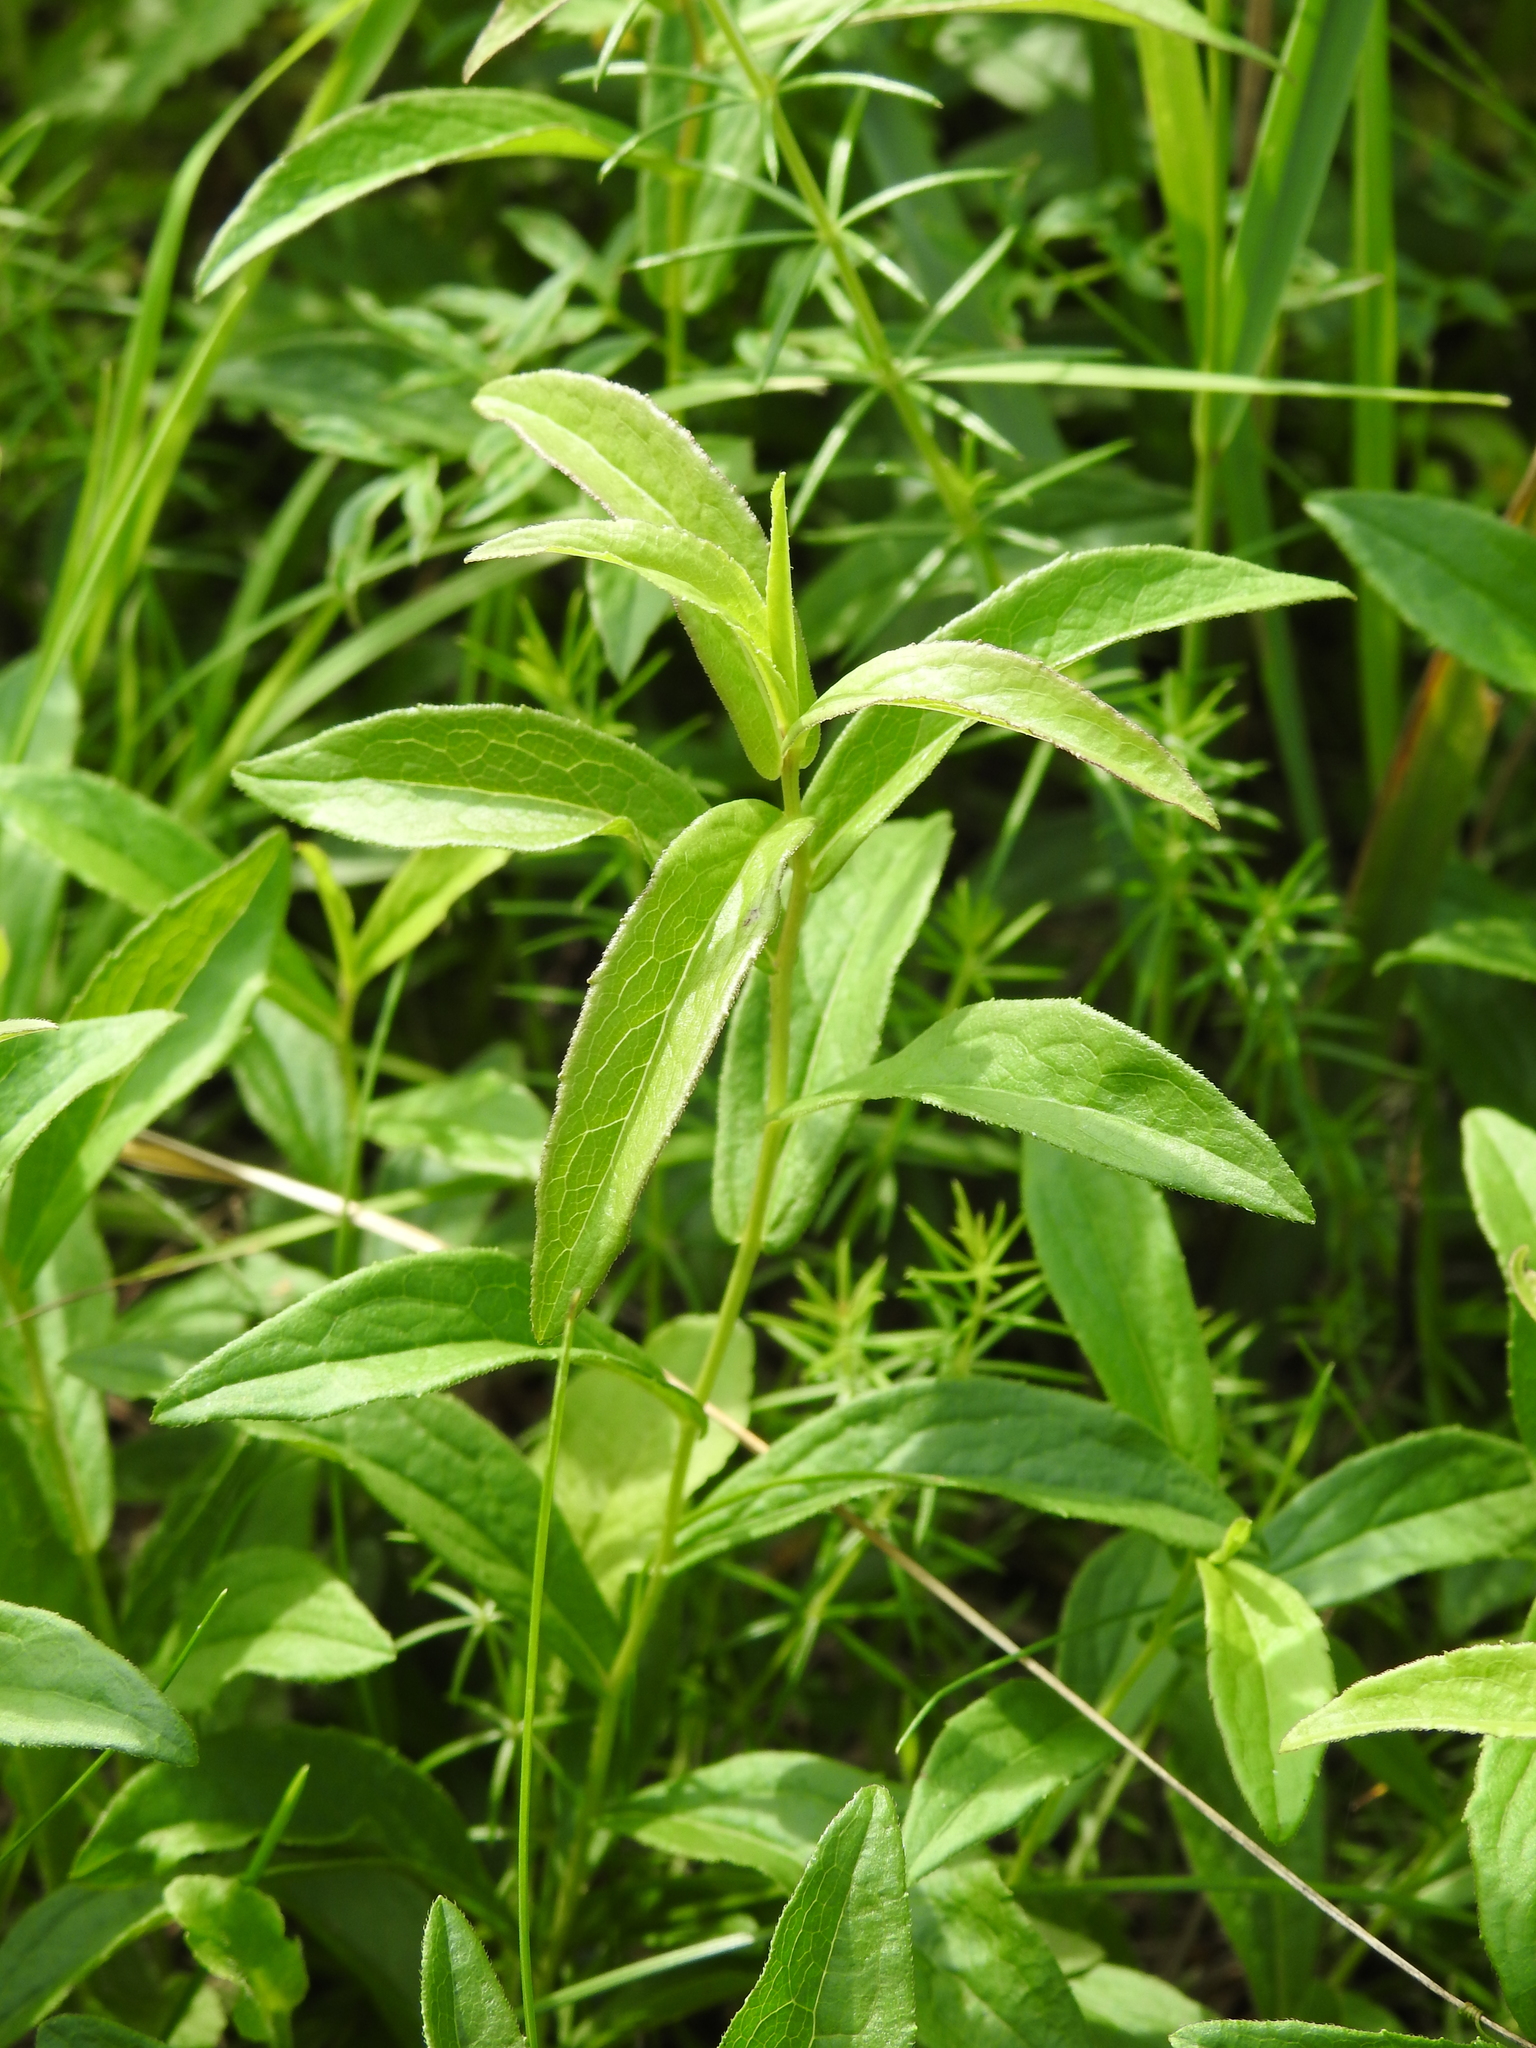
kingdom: Plantae
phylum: Tracheophyta
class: Magnoliopsida
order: Asterales
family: Asteraceae
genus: Pentanema
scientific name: Pentanema salicinum
